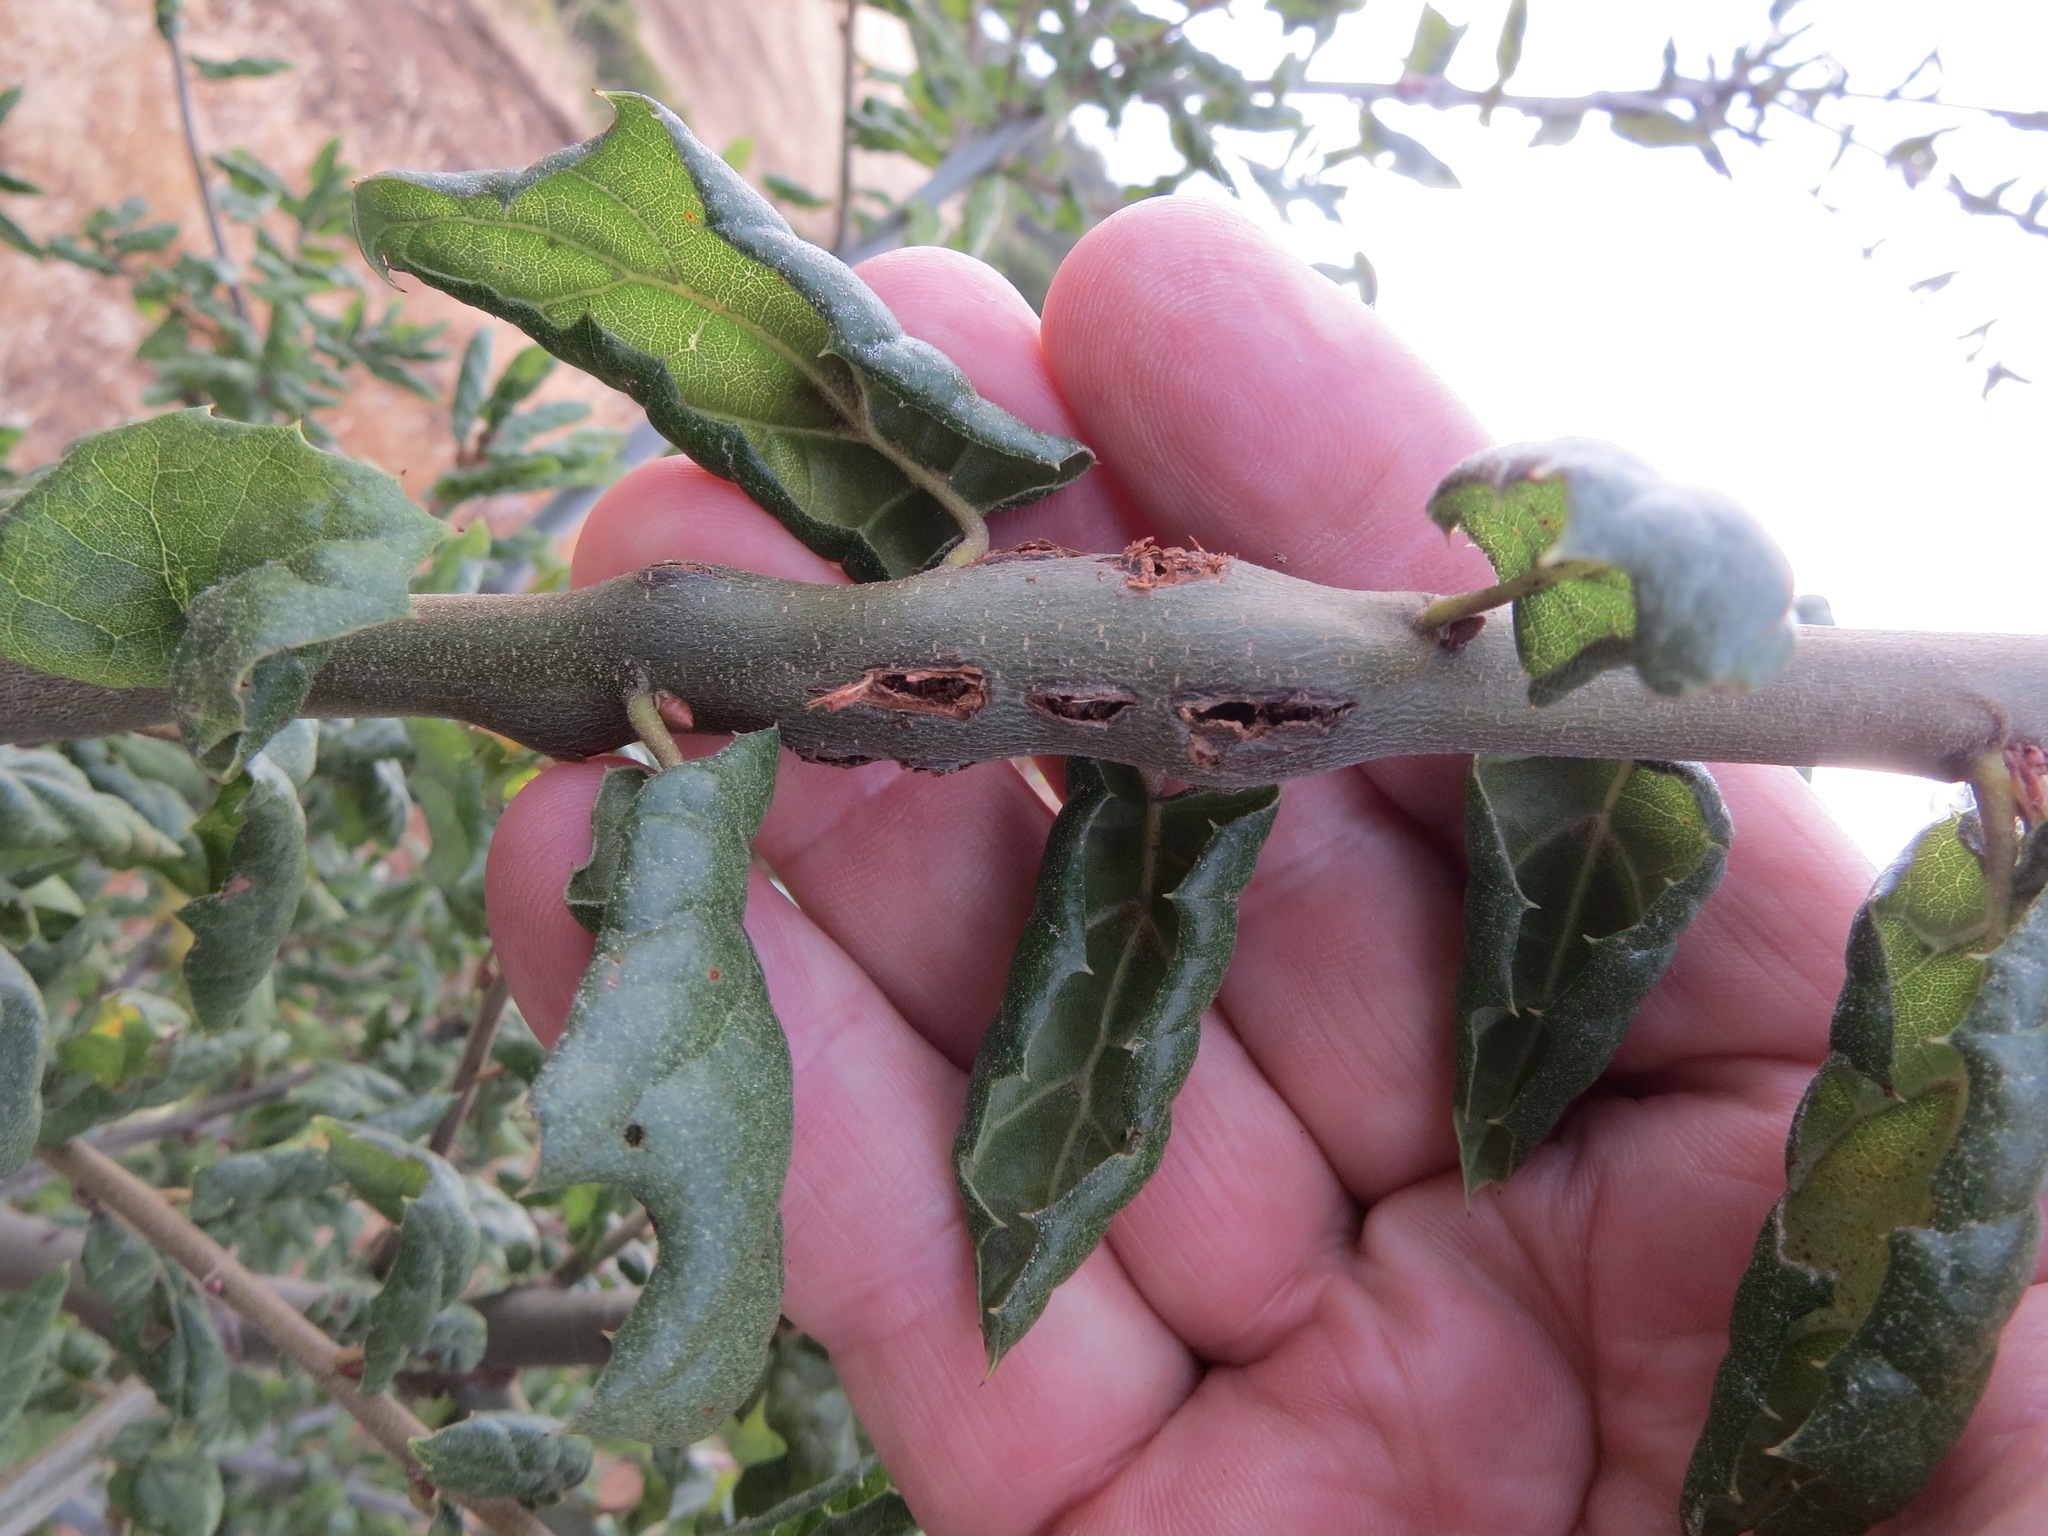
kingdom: Animalia
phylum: Arthropoda
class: Insecta
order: Hymenoptera
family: Cynipidae
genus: Callirhytis
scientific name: Callirhytis
